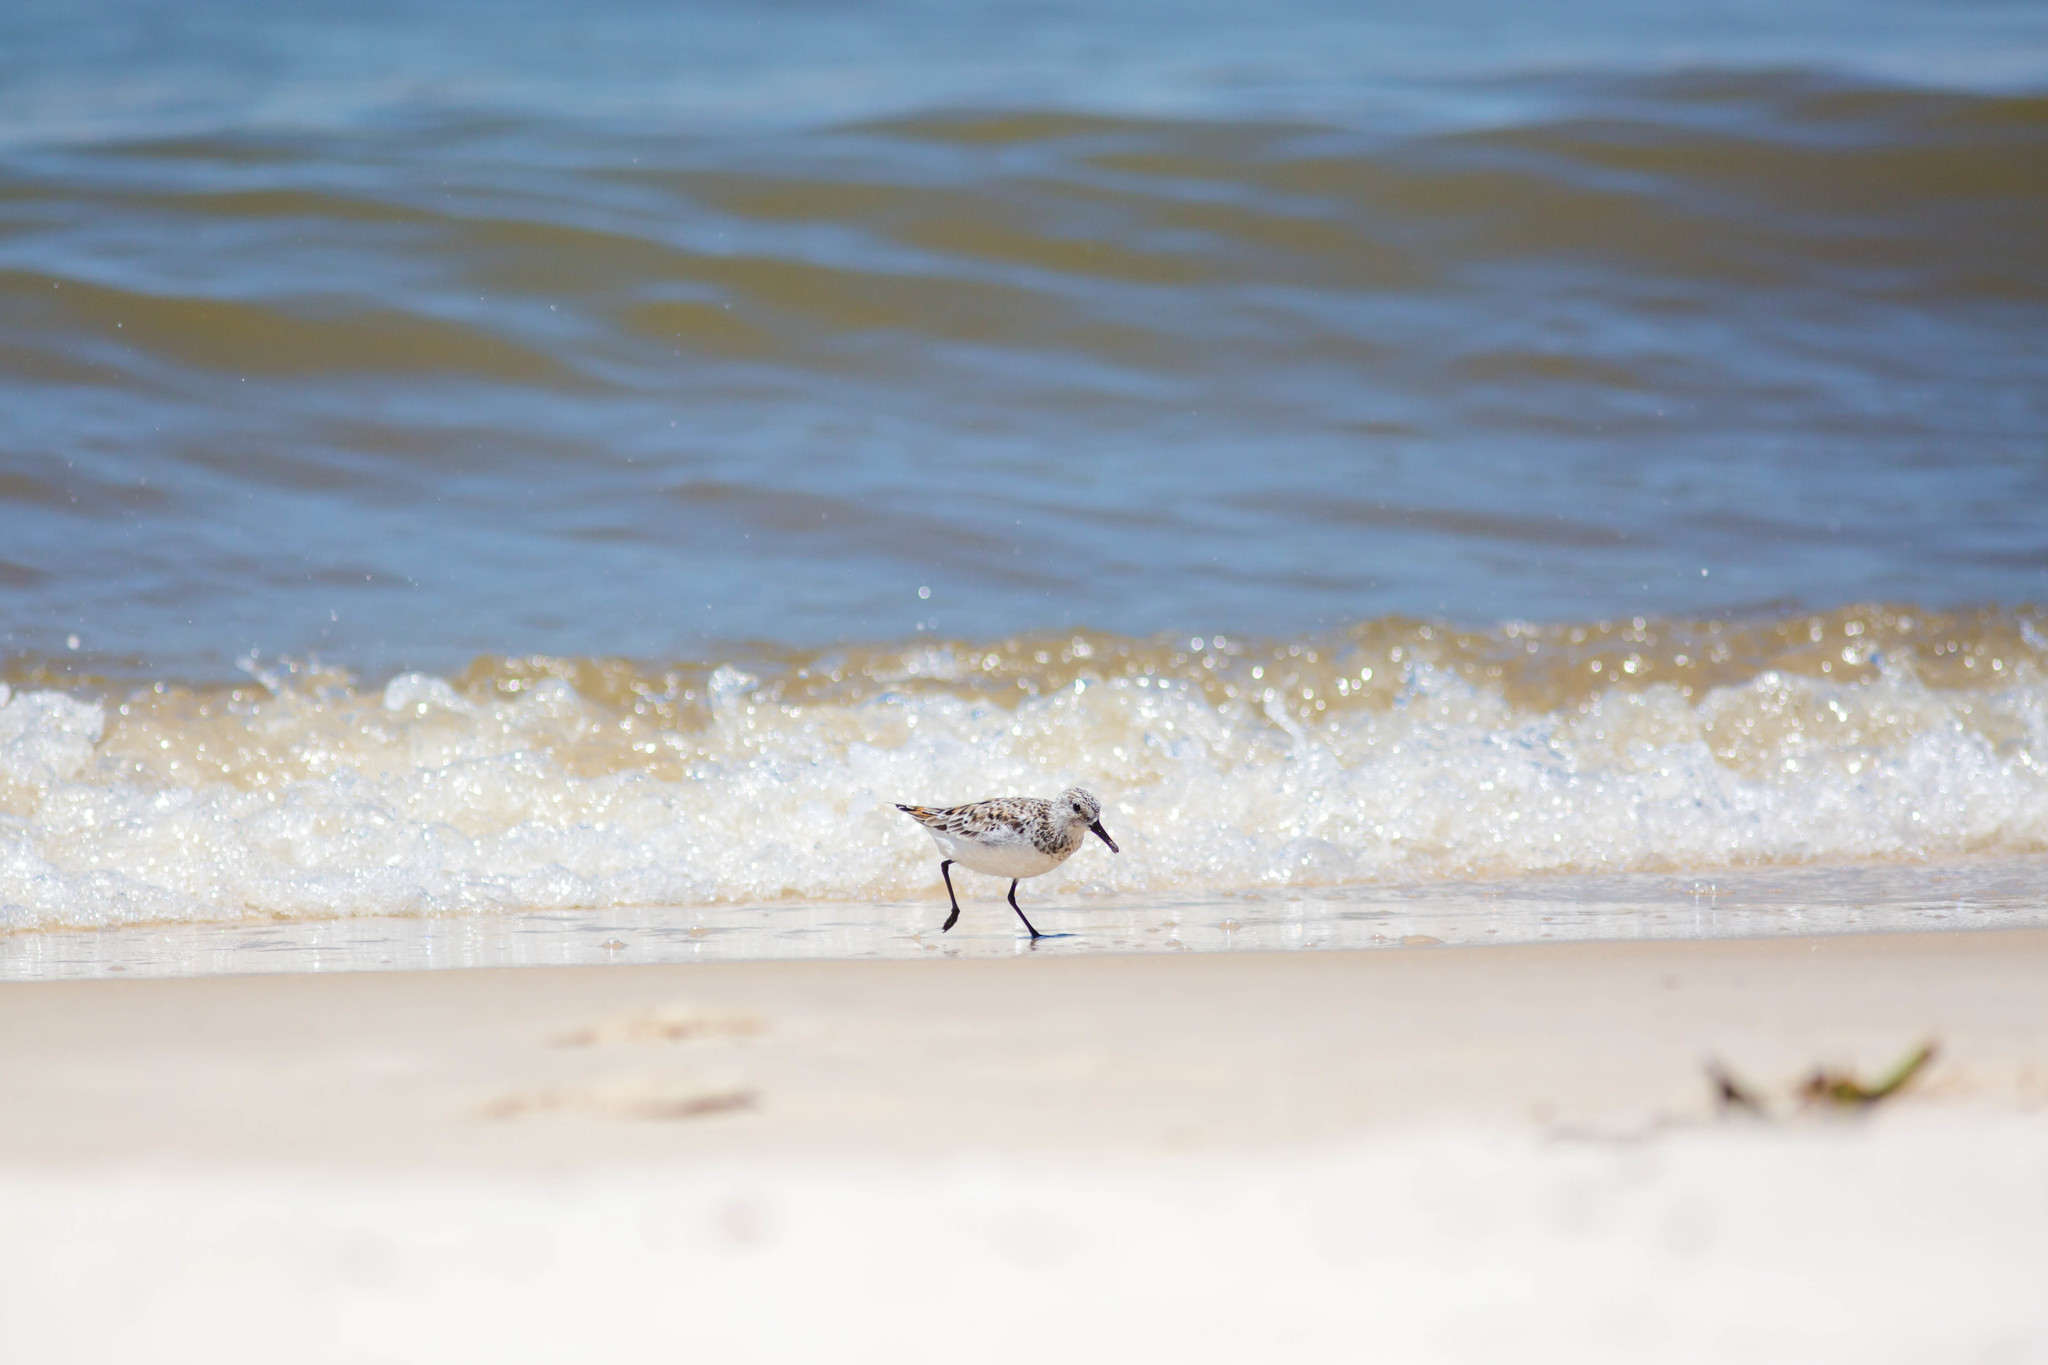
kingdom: Animalia
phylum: Chordata
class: Aves
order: Charadriiformes
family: Scolopacidae
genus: Calidris
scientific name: Calidris alba
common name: Sanderling
